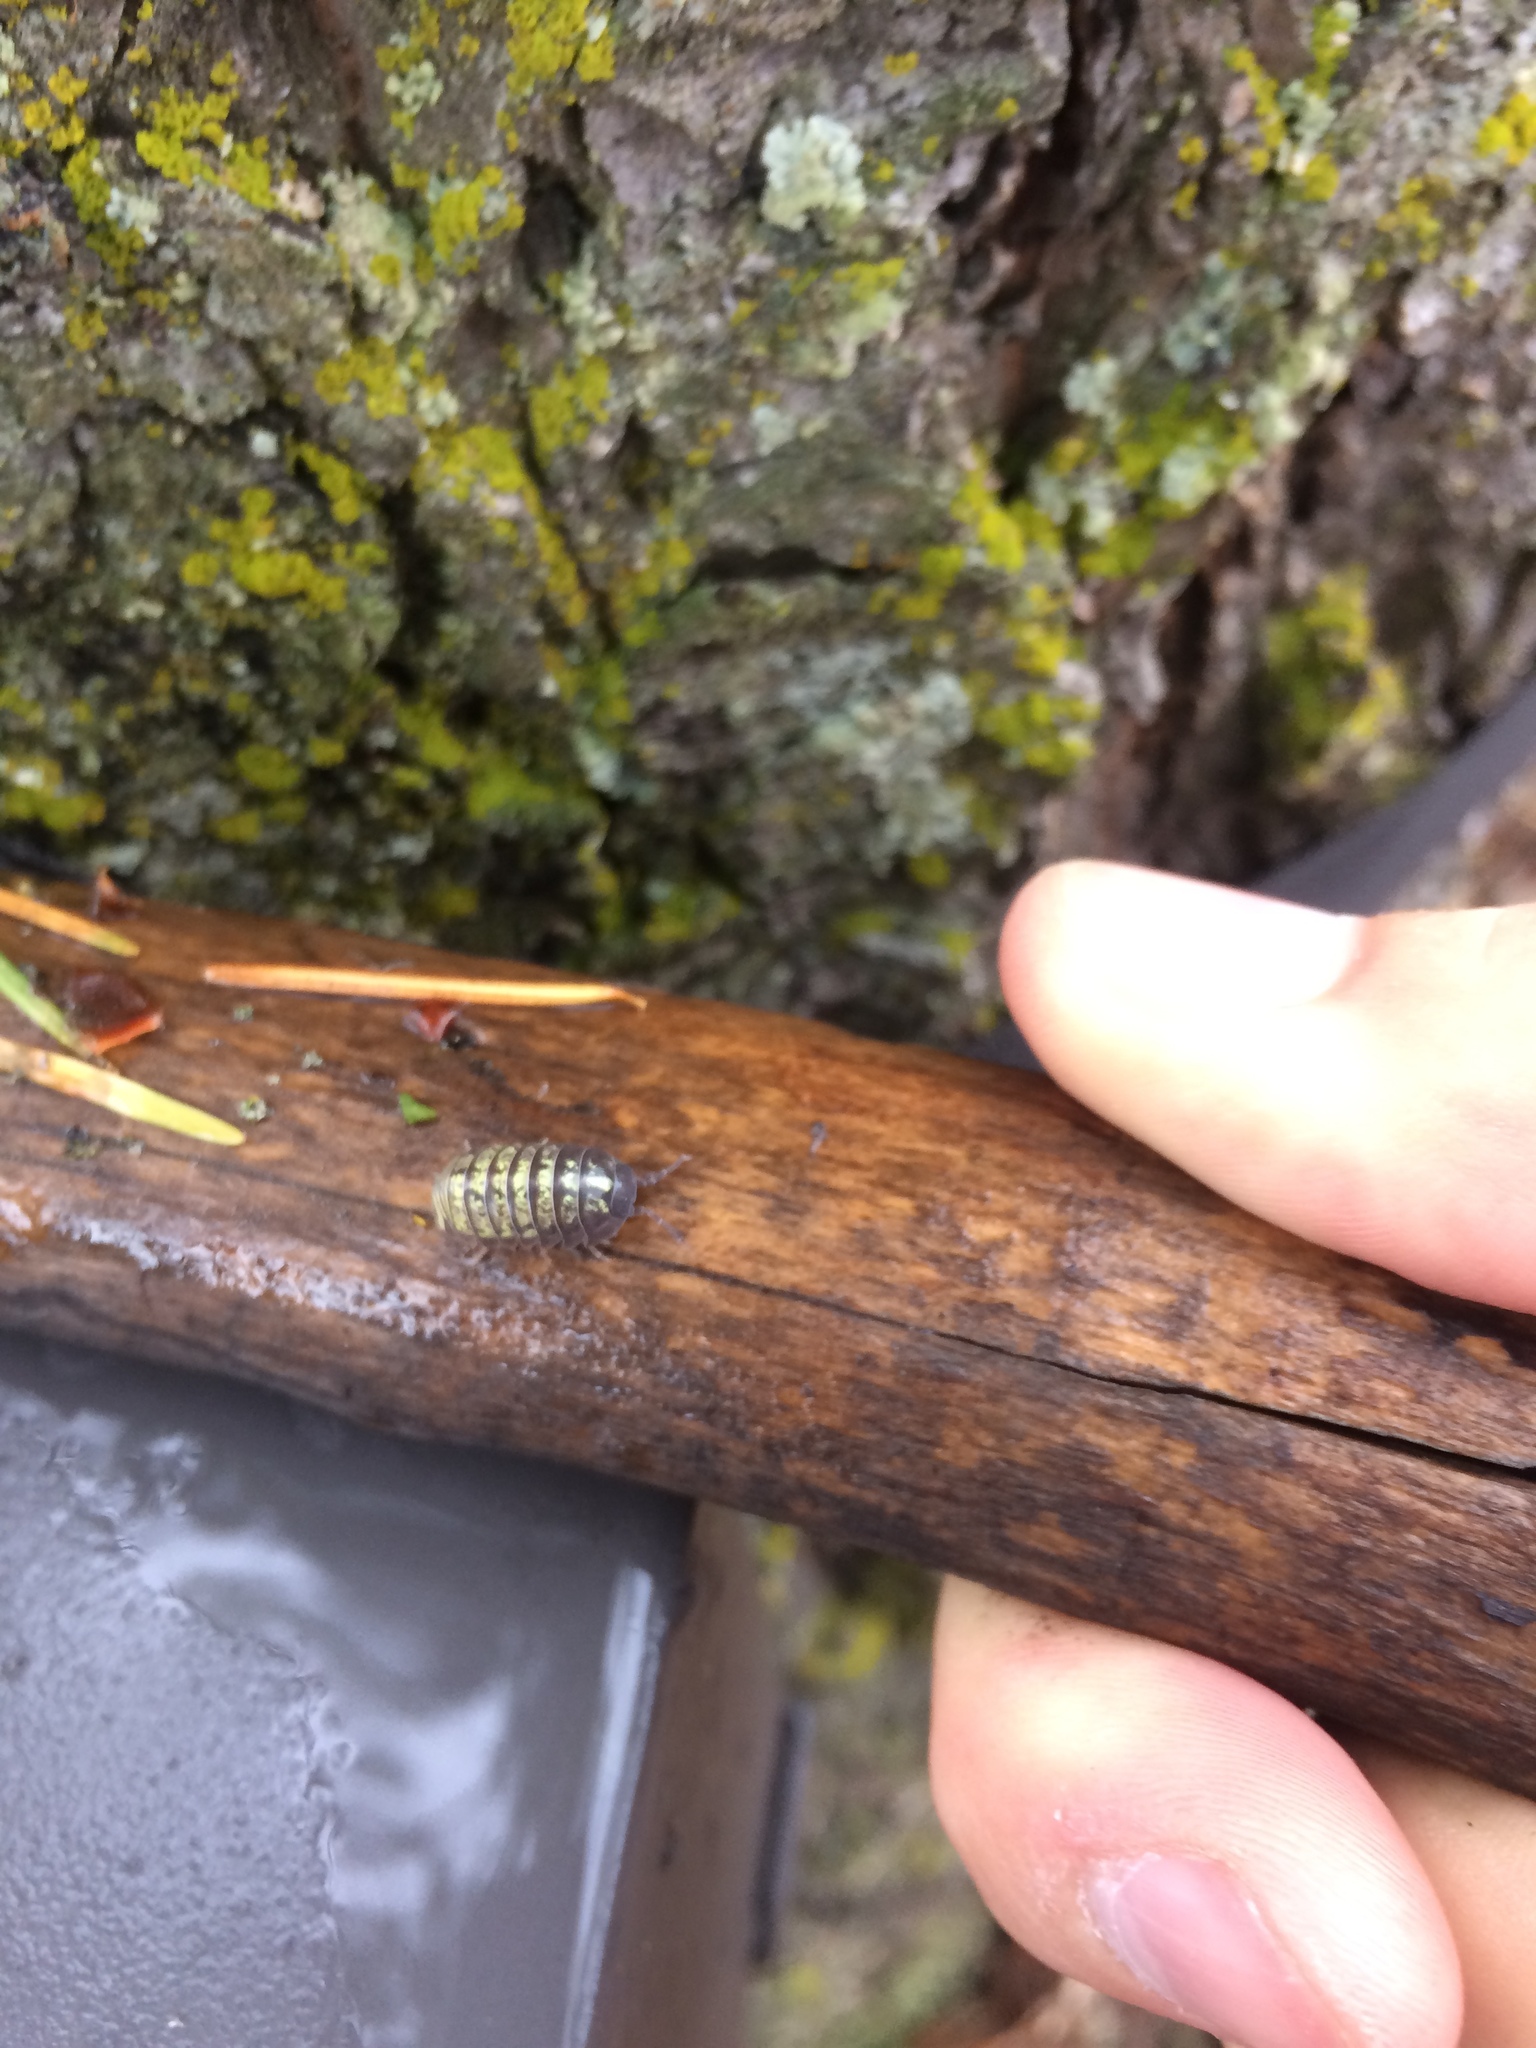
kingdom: Animalia
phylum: Arthropoda
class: Malacostraca
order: Isopoda
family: Armadillidiidae
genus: Armadillidium
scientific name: Armadillidium vulgare
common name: Common pill woodlouse
